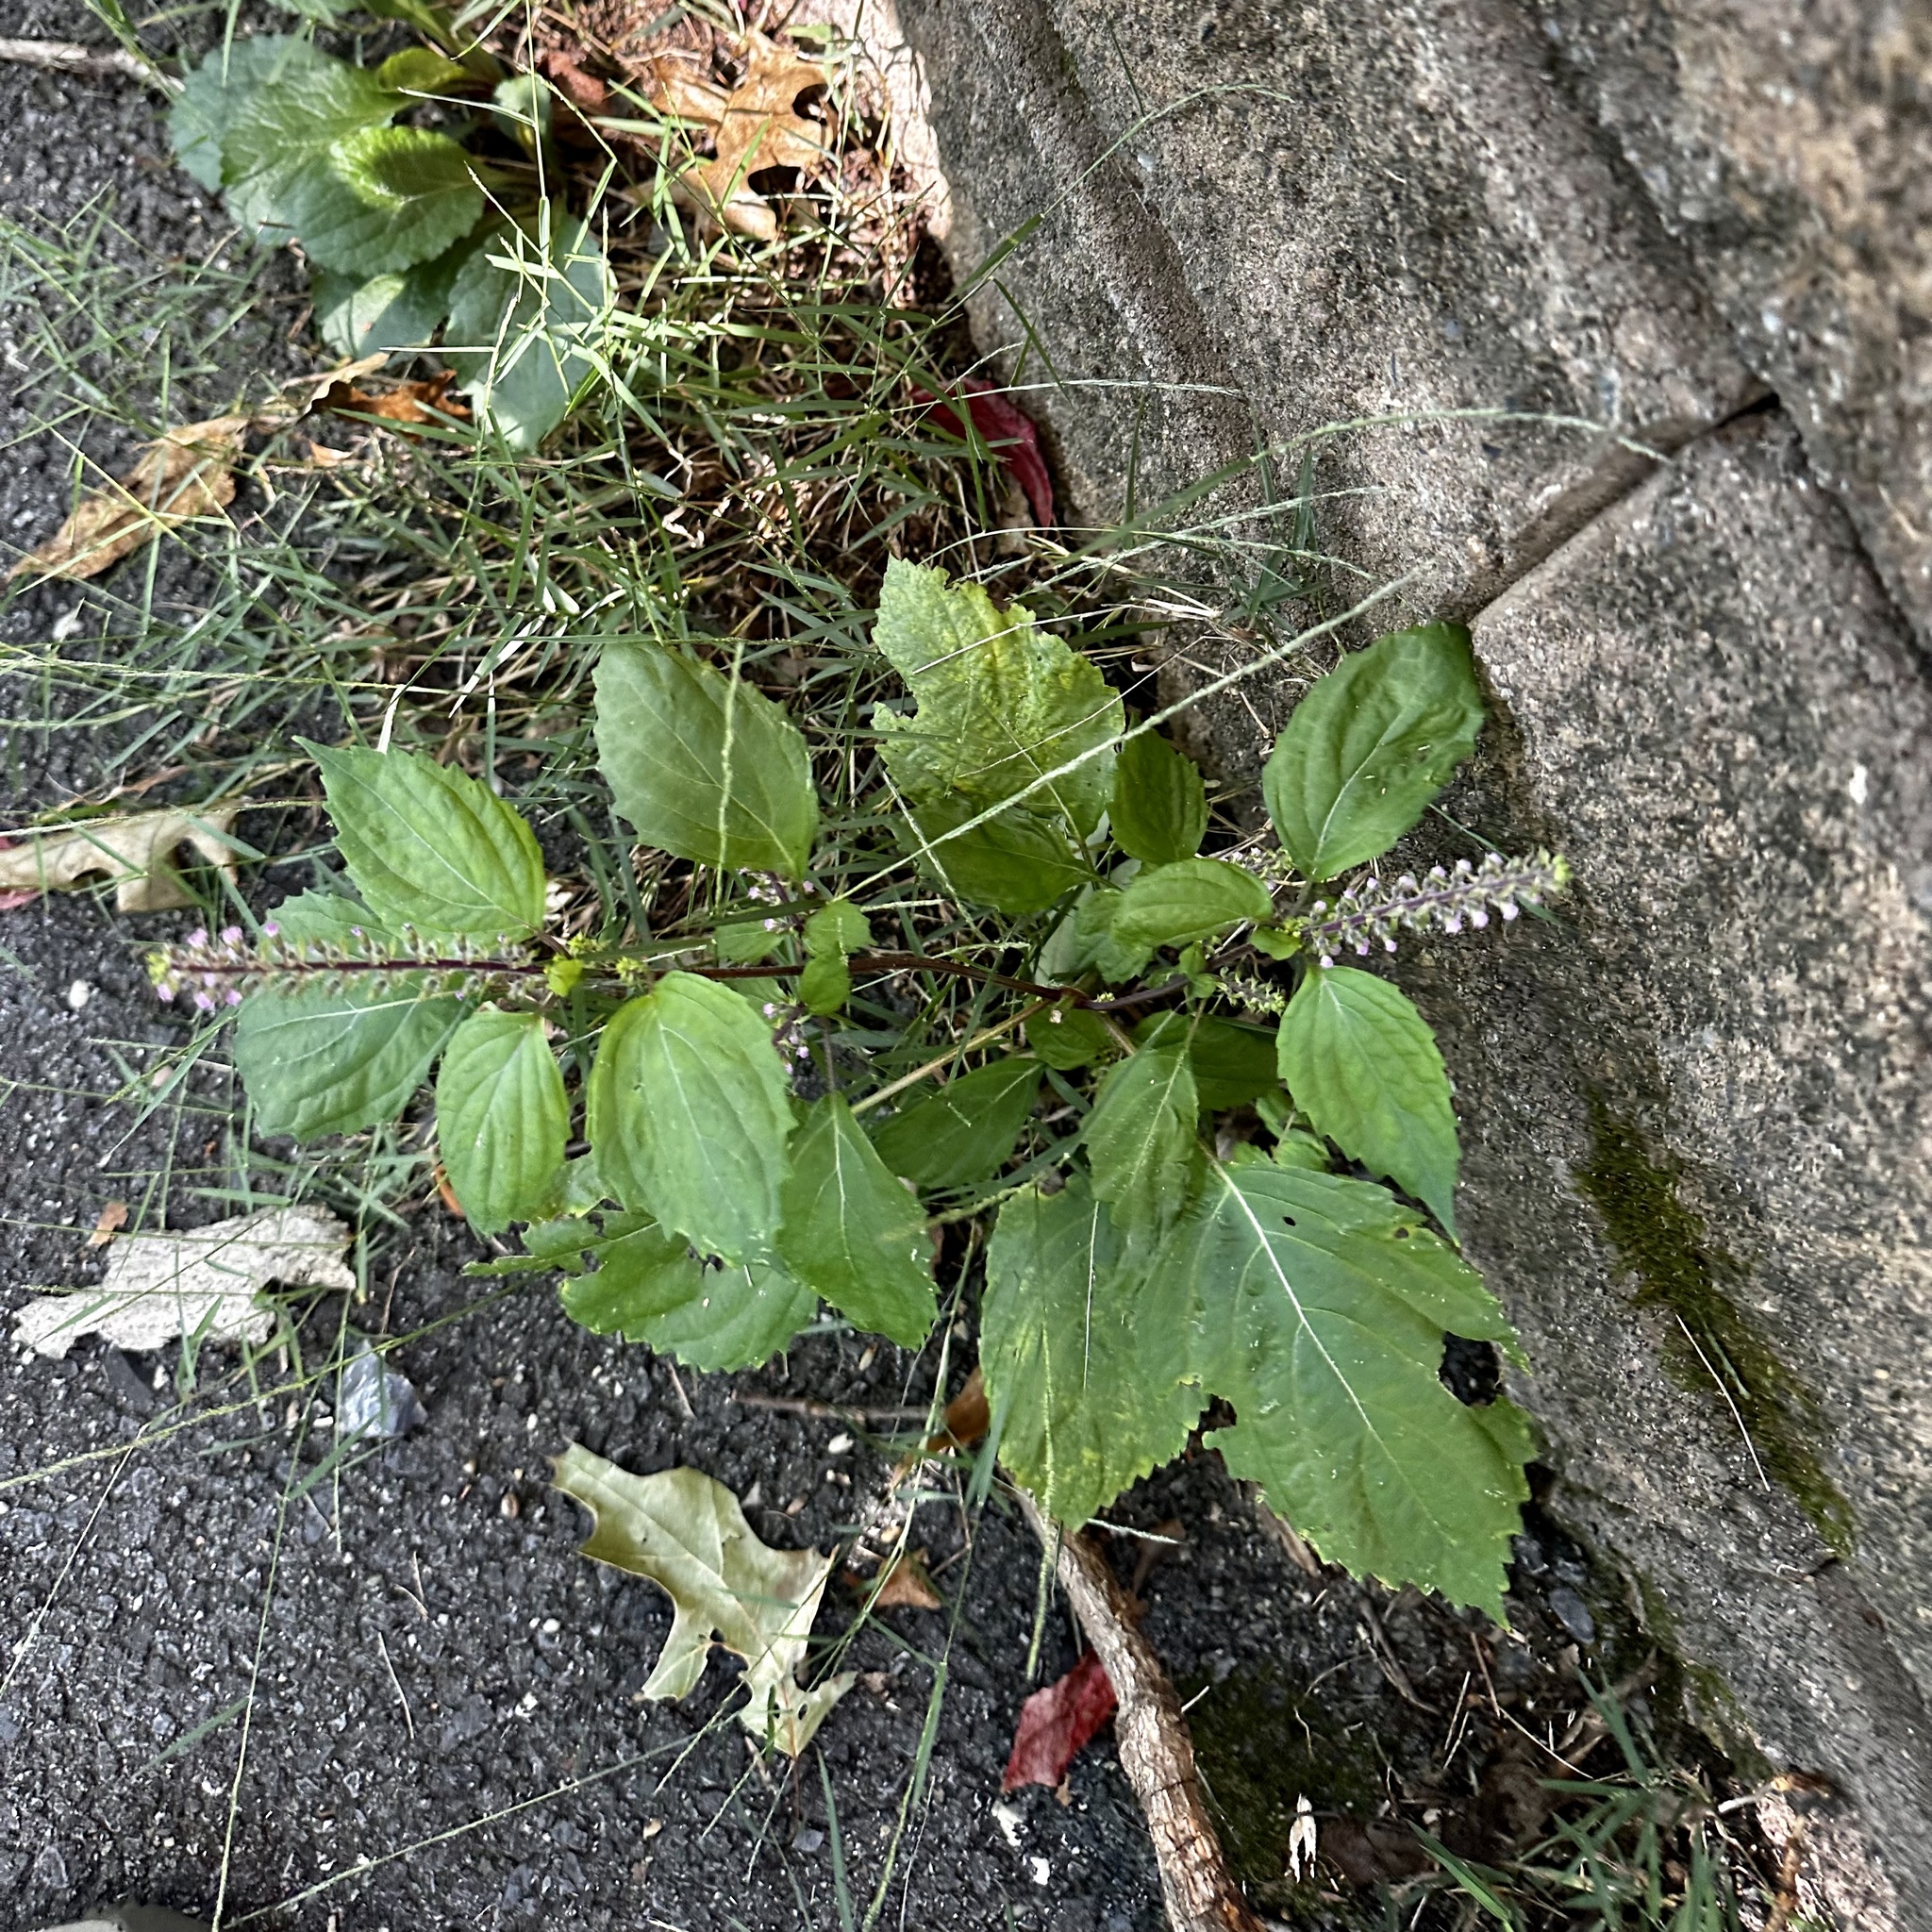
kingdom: Plantae
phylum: Tracheophyta
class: Magnoliopsida
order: Lamiales
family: Lamiaceae
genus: Perilla
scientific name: Perilla frutescens
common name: Perilla
